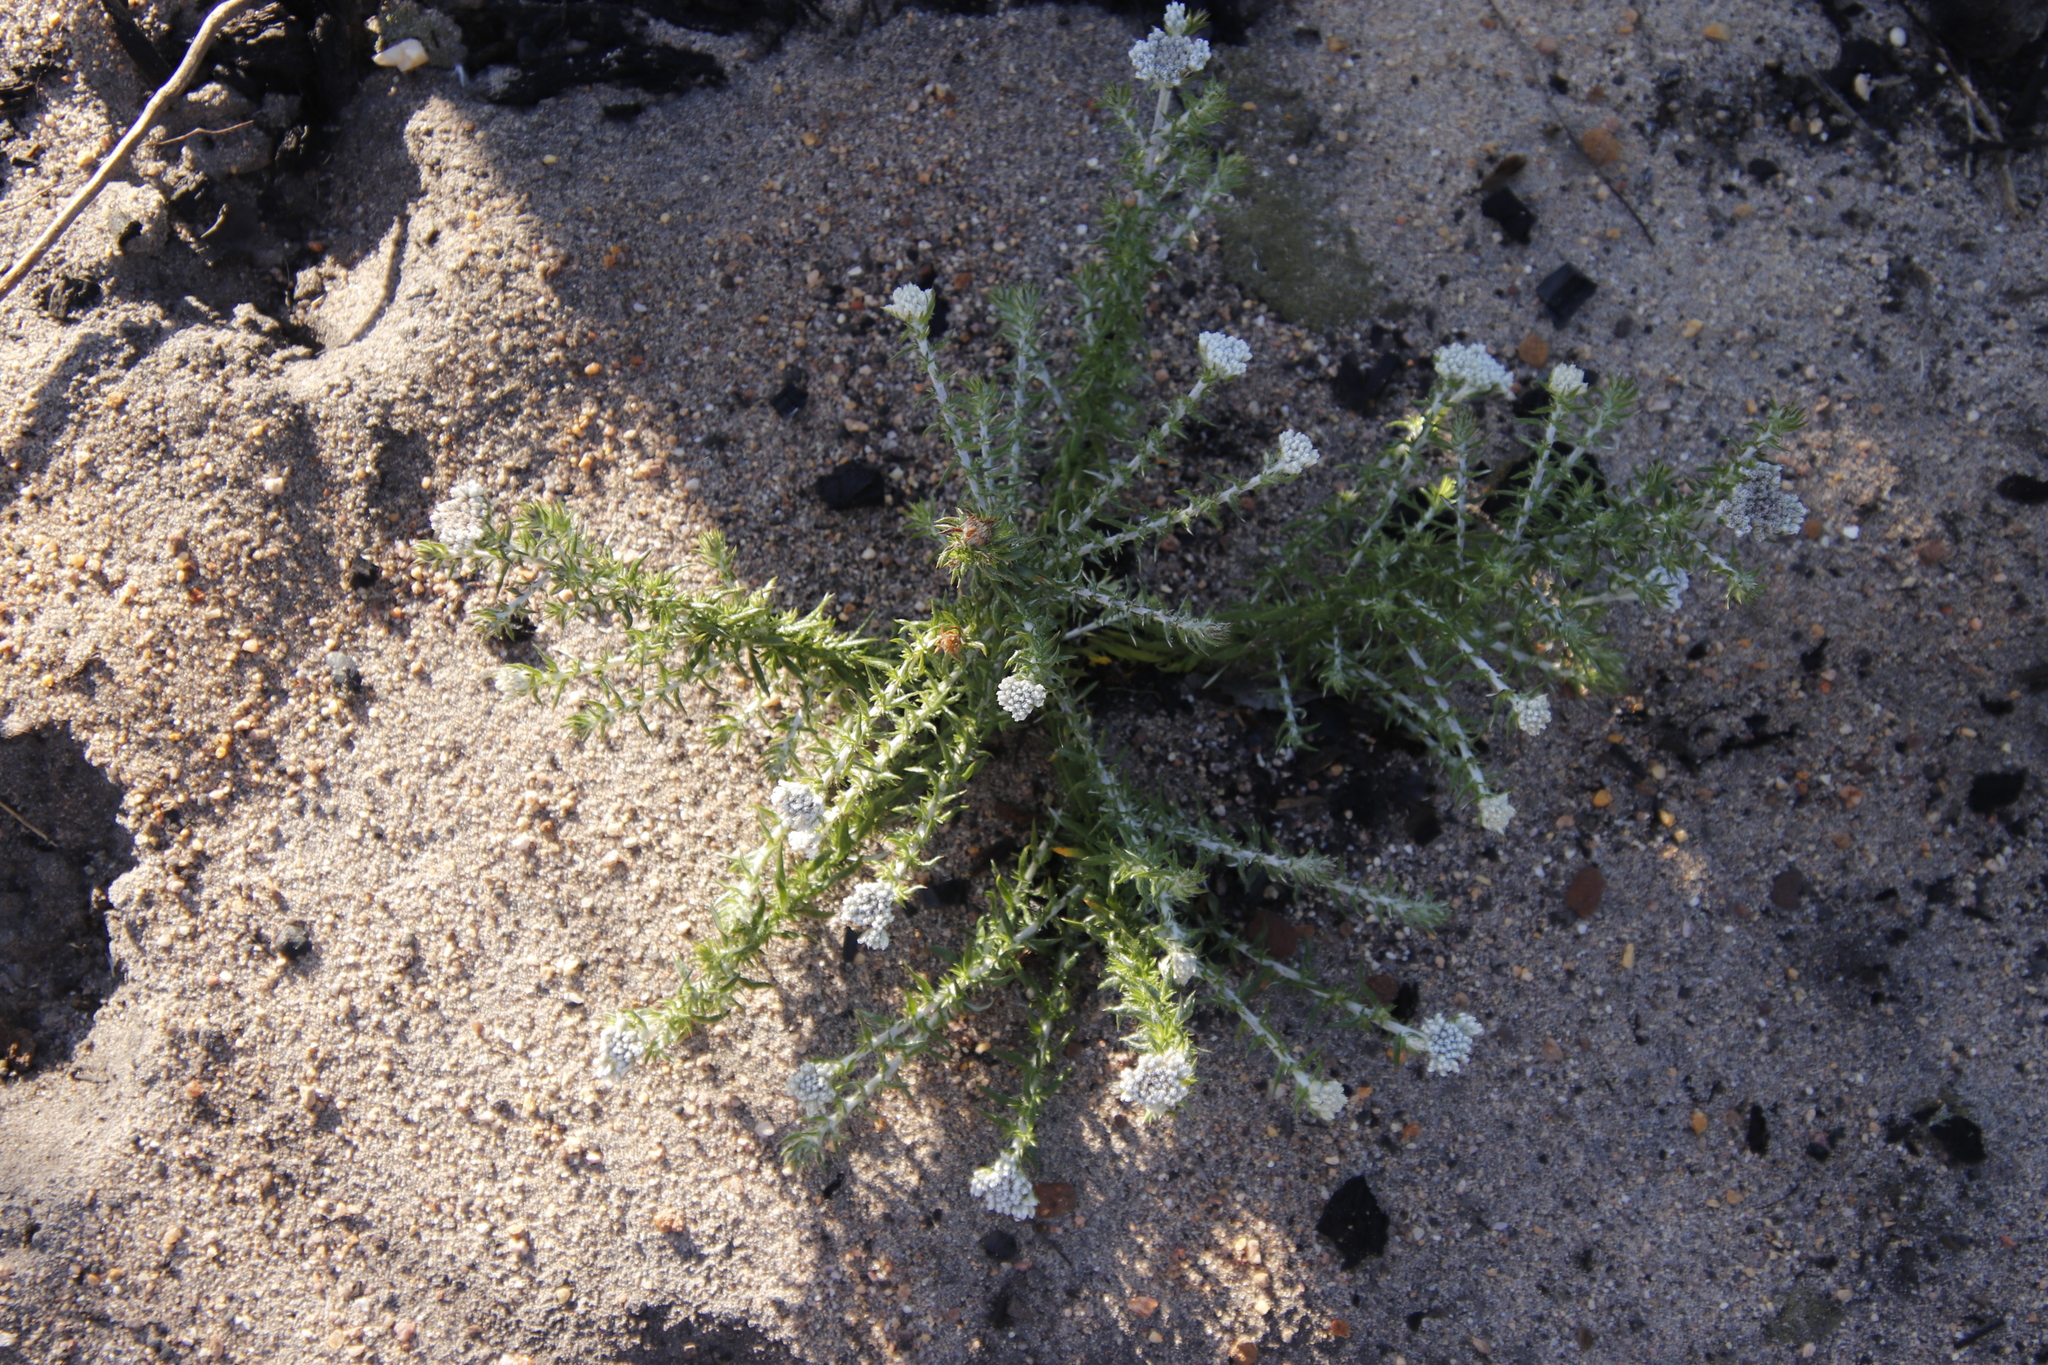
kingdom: Plantae
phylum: Tracheophyta
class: Magnoliopsida
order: Asterales
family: Asteraceae
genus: Metalasia
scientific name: Metalasia pulchella
